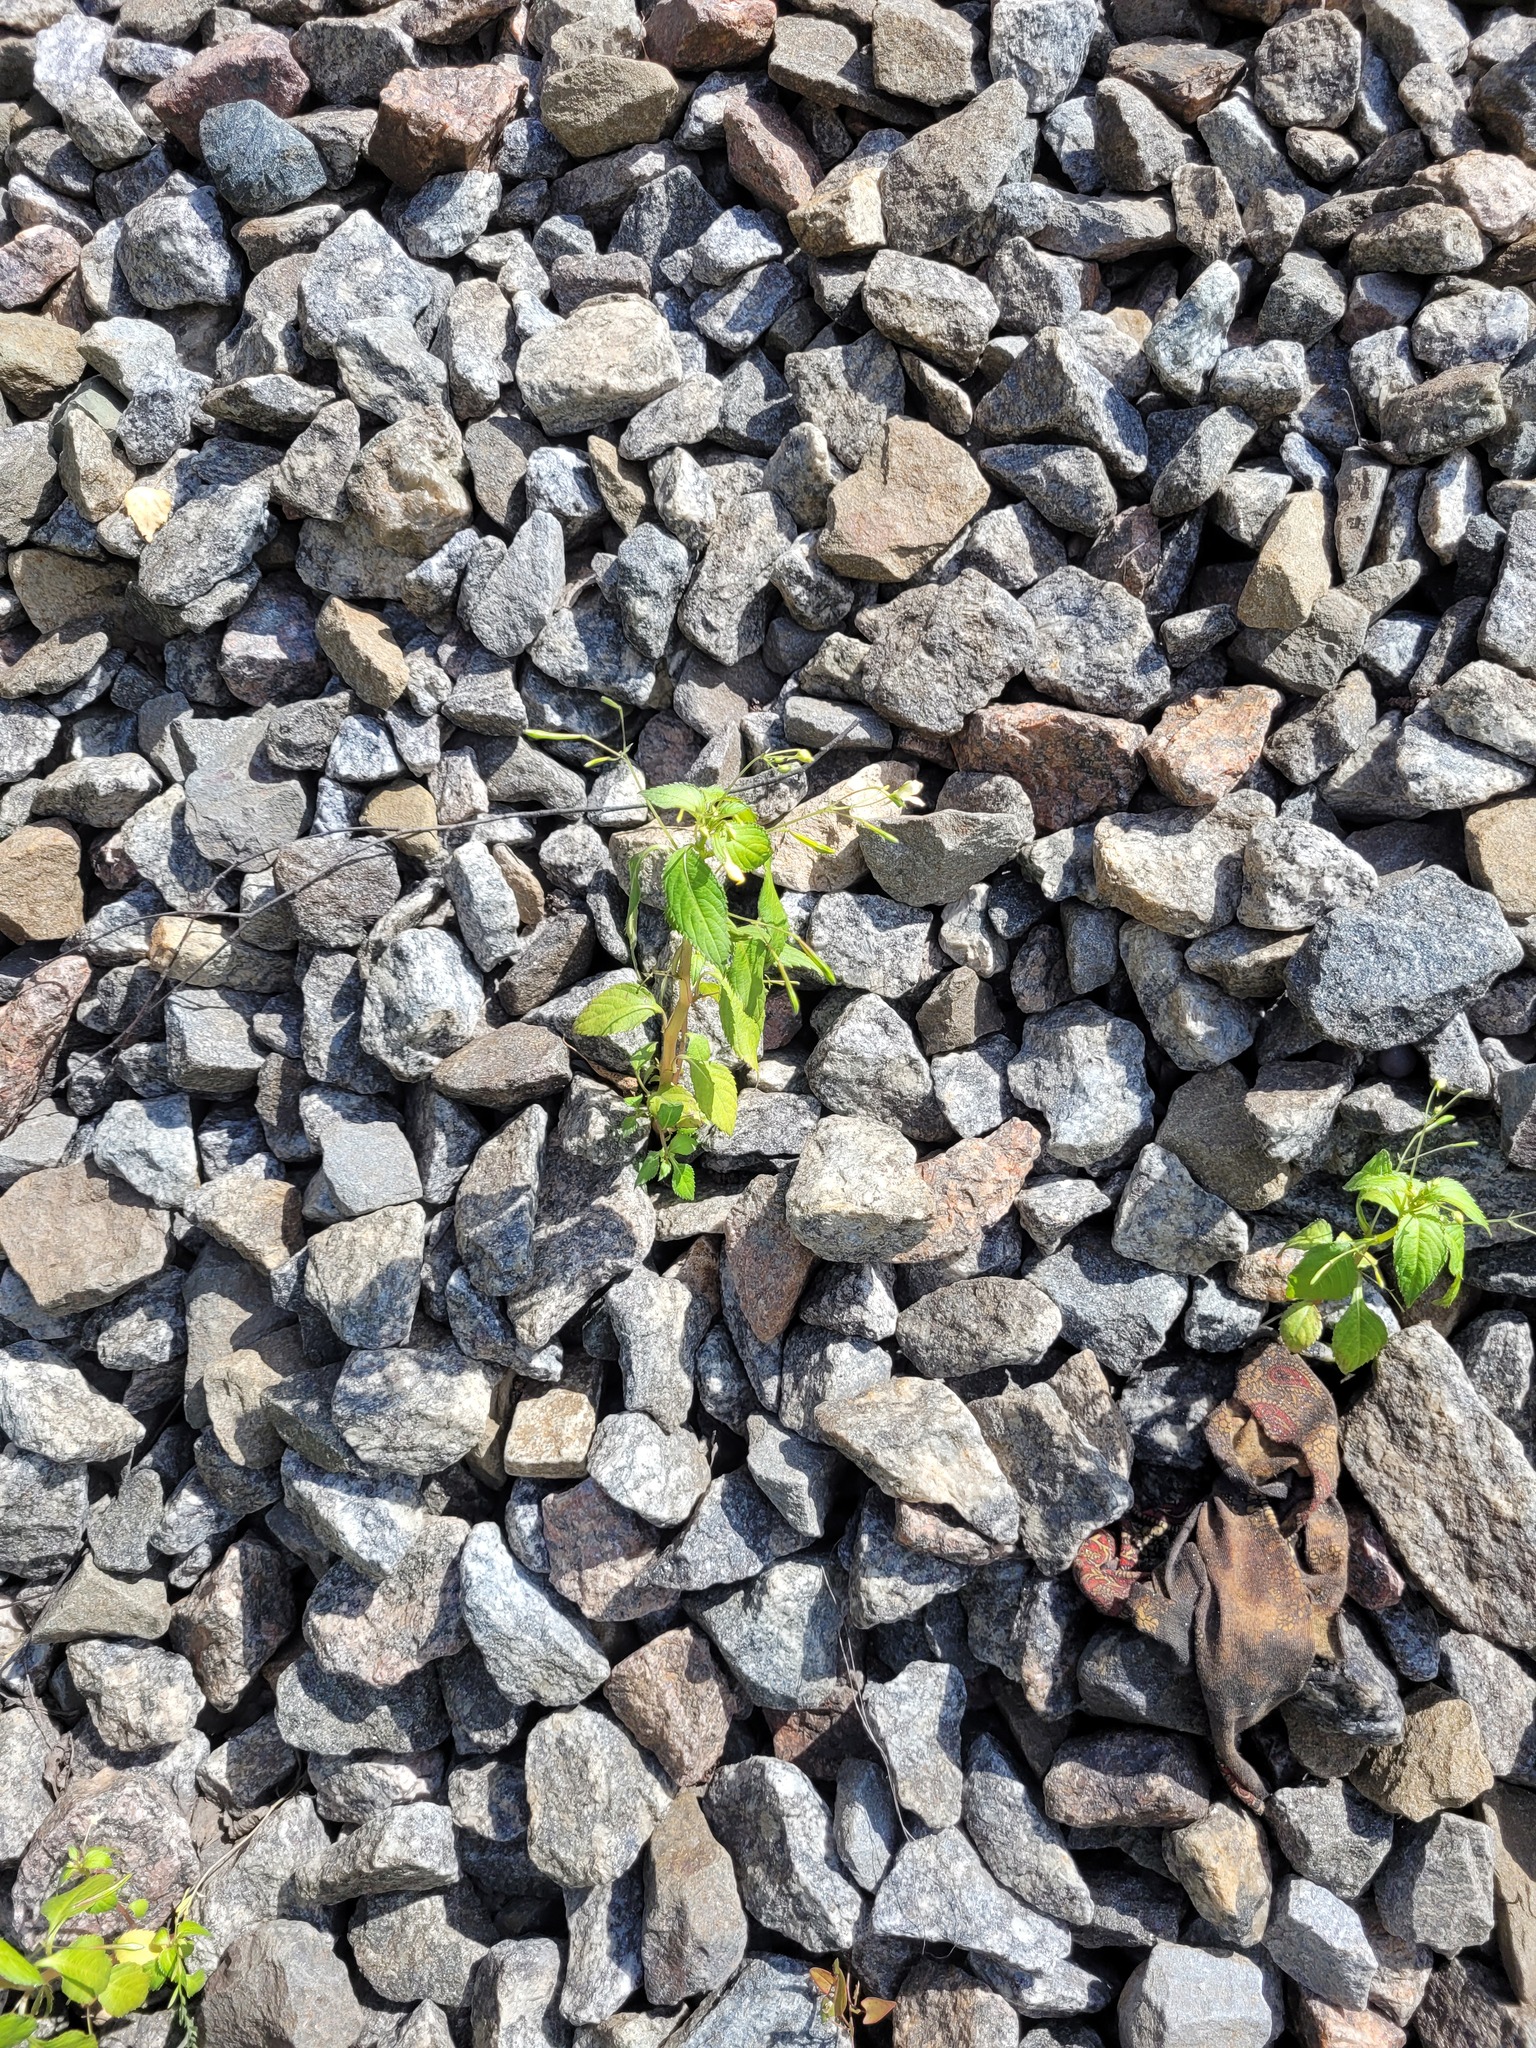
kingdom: Plantae
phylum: Tracheophyta
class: Magnoliopsida
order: Ericales
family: Balsaminaceae
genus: Impatiens
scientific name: Impatiens parviflora
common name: Small balsam
